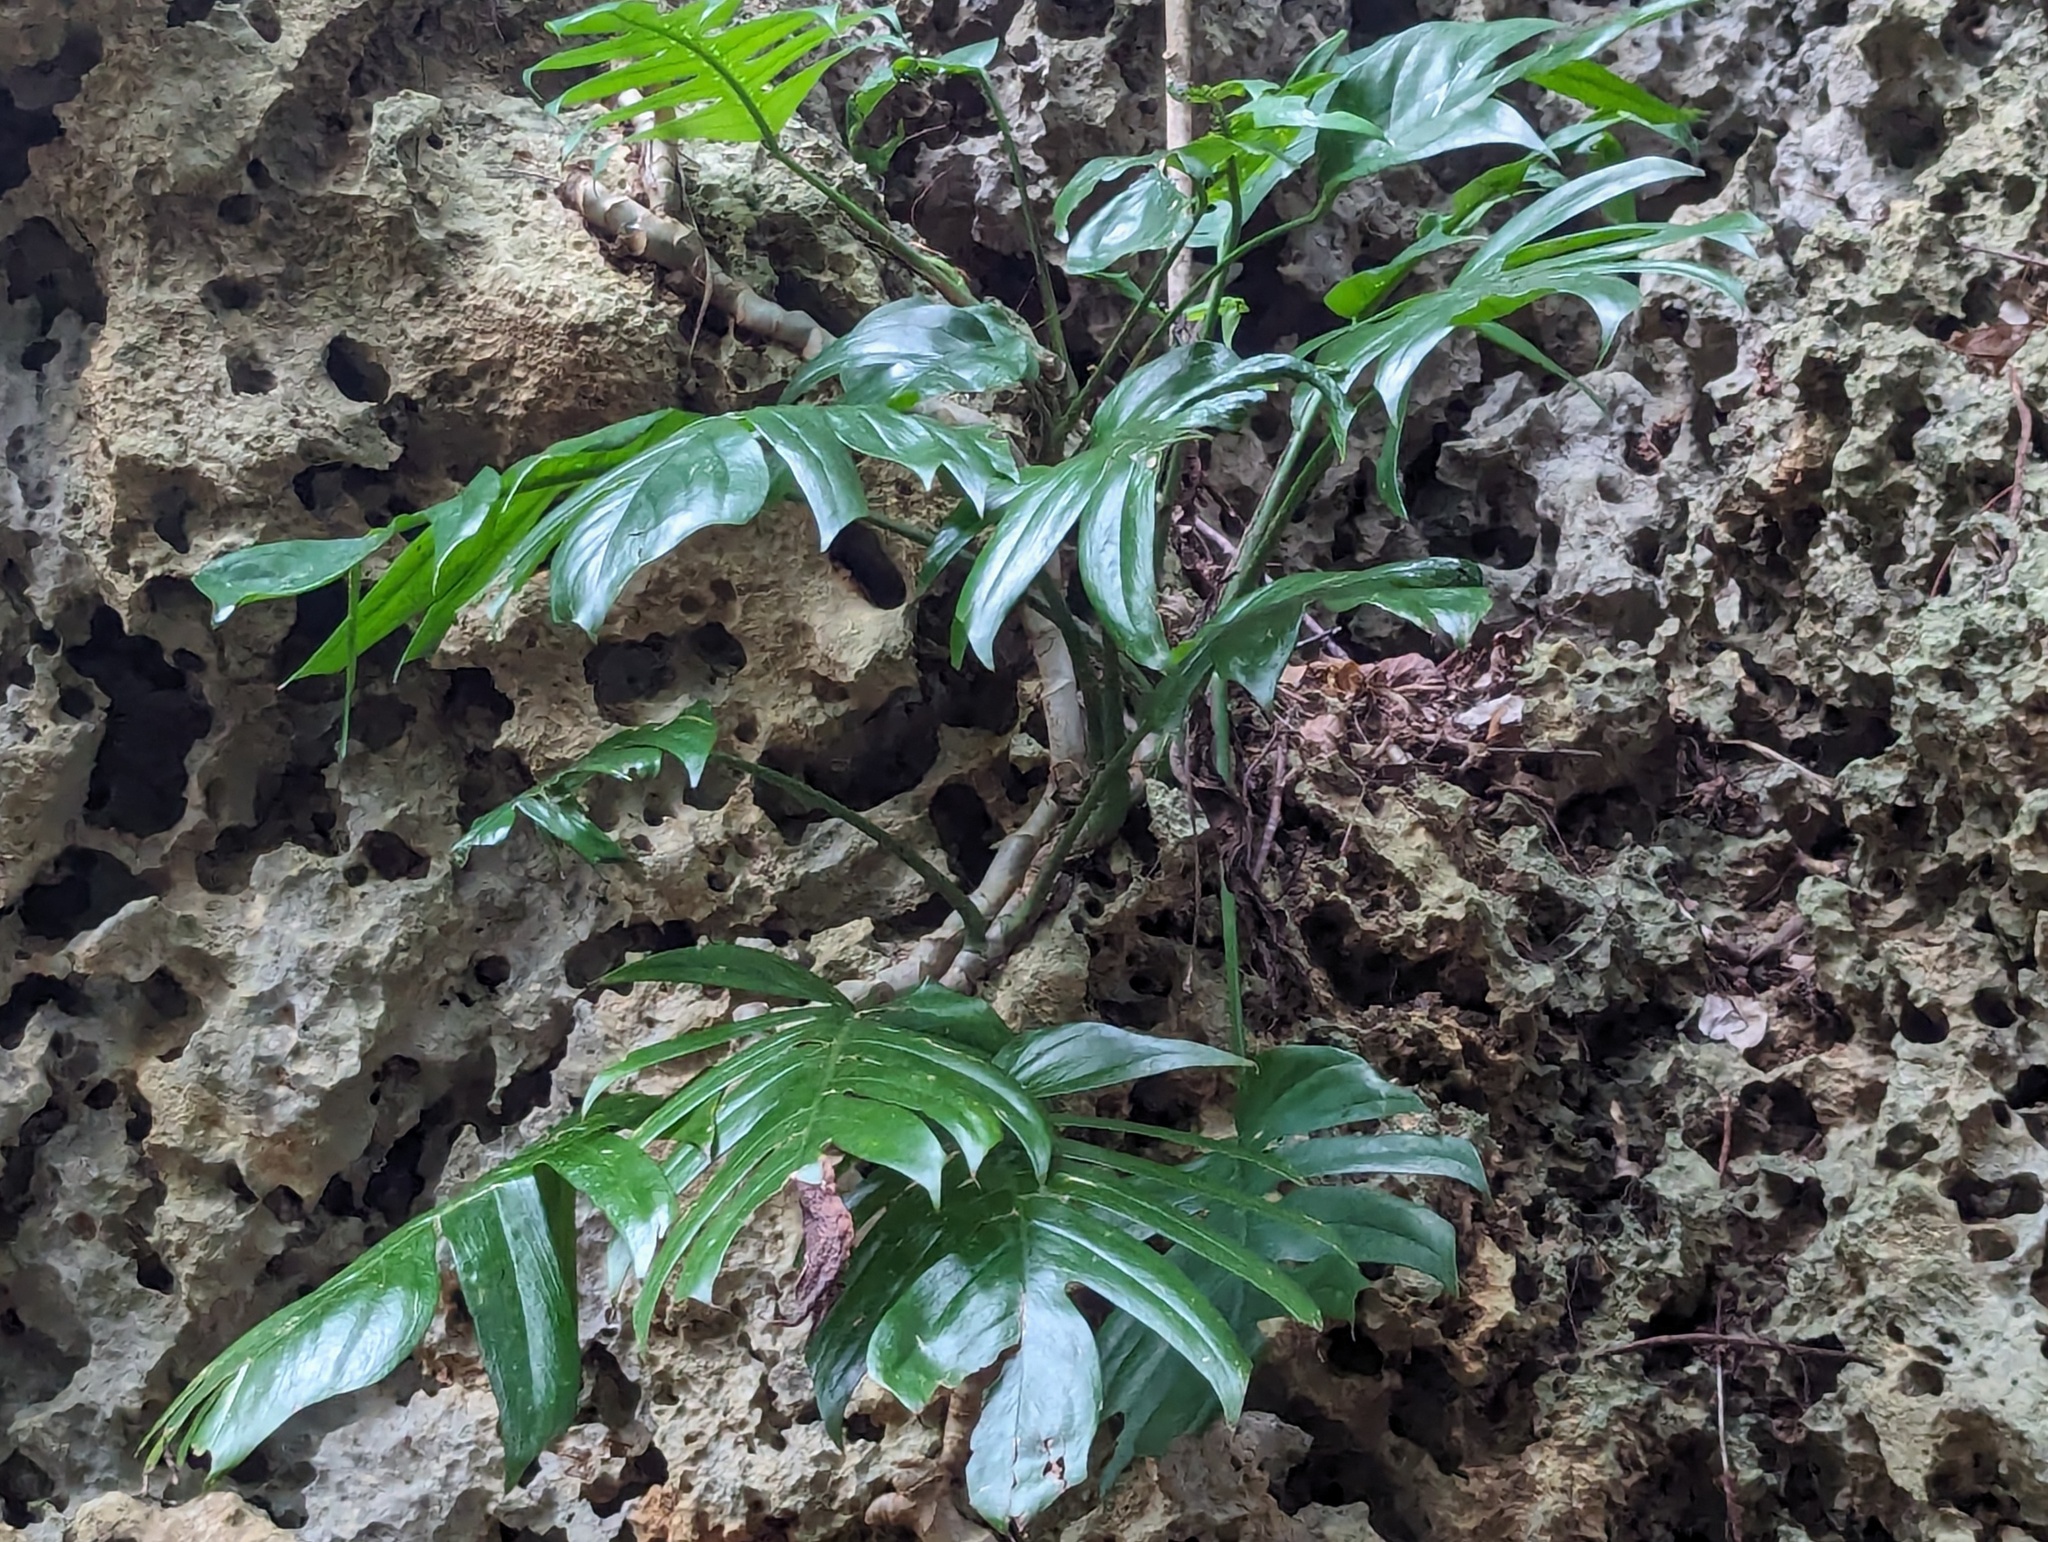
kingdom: Plantae
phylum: Tracheophyta
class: Liliopsida
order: Alismatales
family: Araceae
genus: Epipremnum
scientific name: Epipremnum pinnatum
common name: Centipede tongavine
